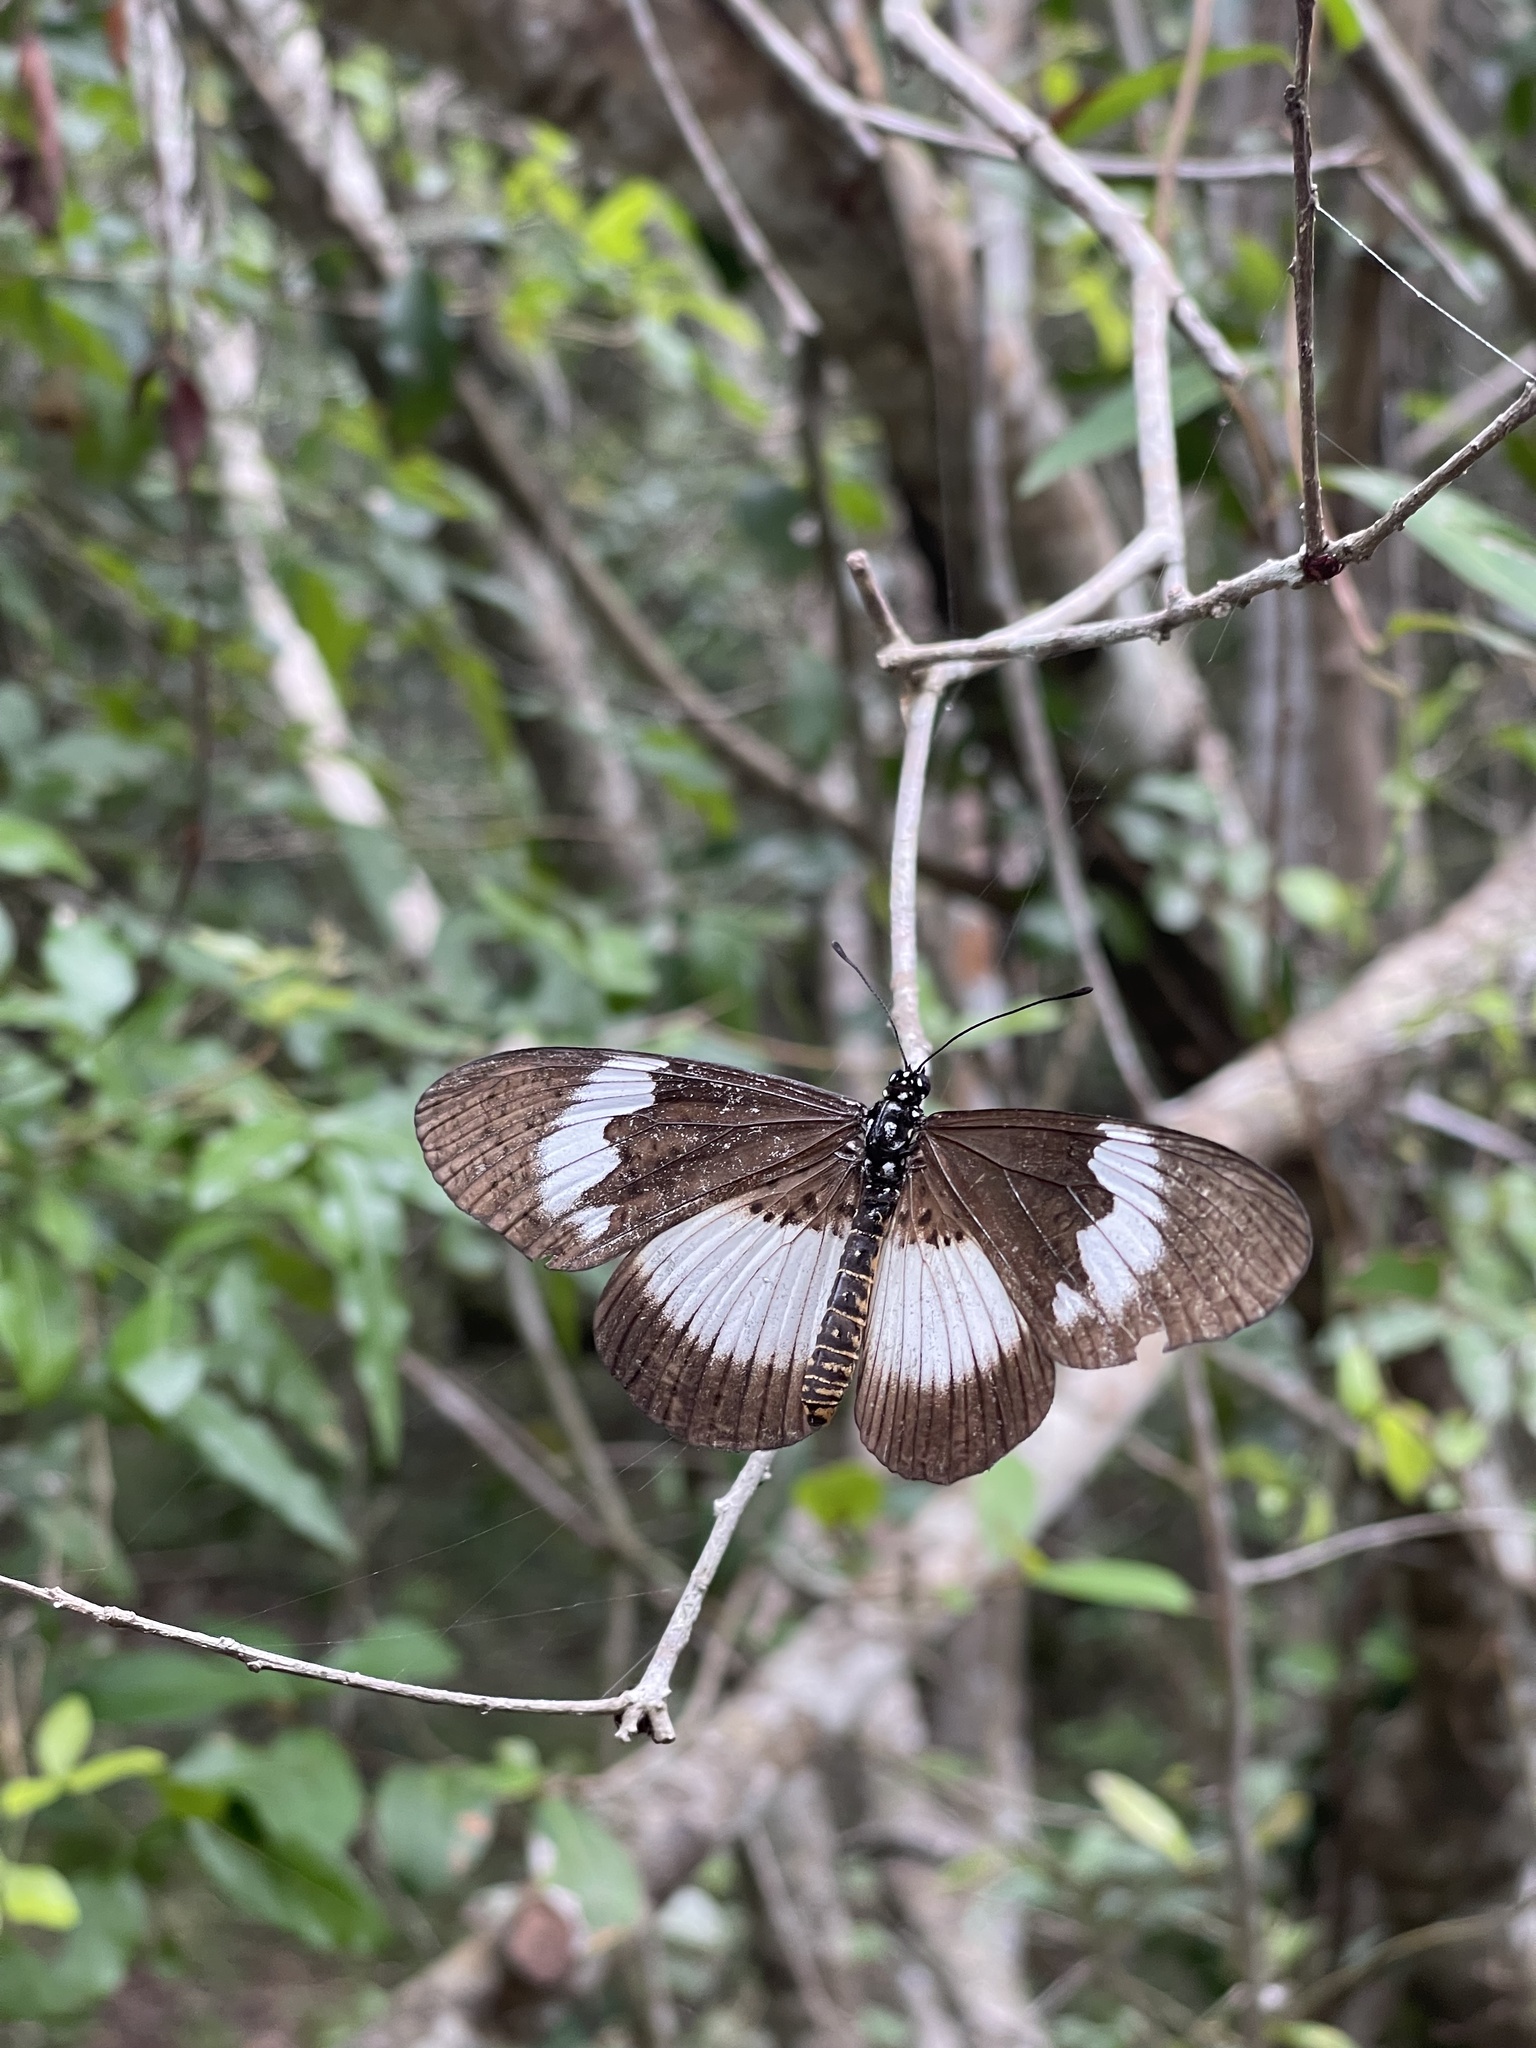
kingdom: Animalia
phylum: Arthropoda
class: Insecta
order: Lepidoptera
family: Nymphalidae
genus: Chloropoea
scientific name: Chloropoea eurytus
